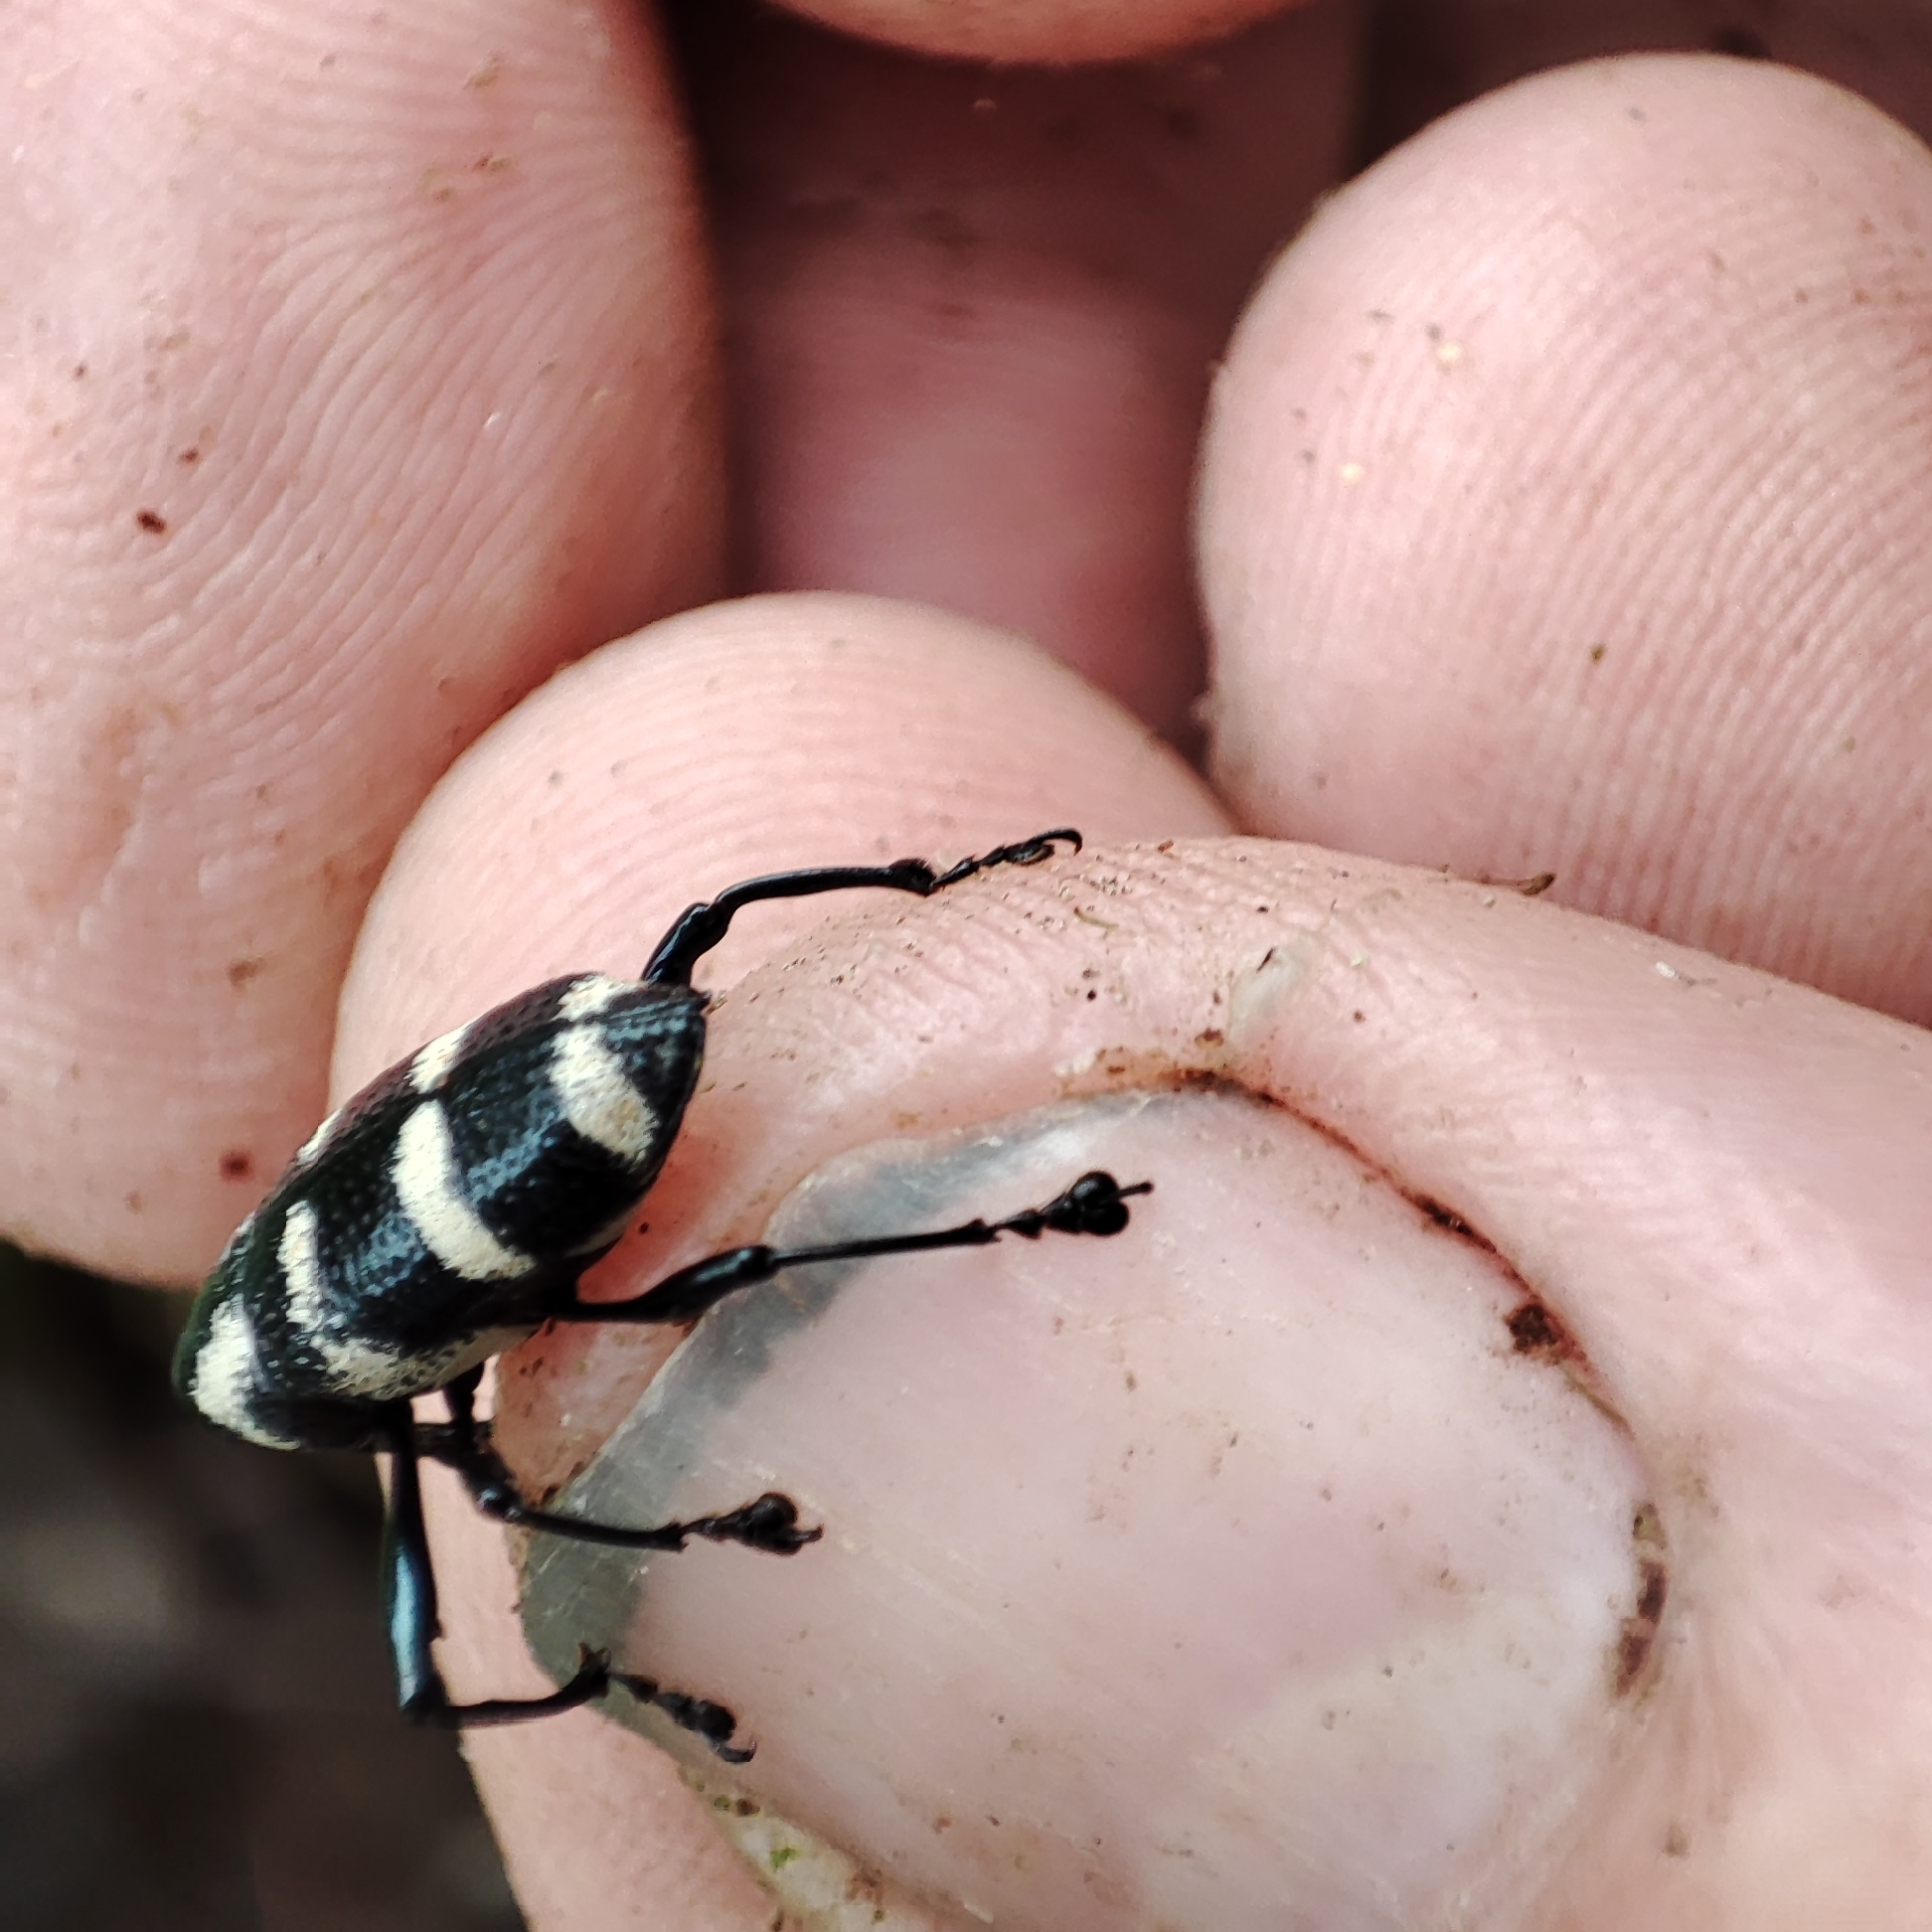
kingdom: Animalia
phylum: Arthropoda
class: Insecta
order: Coleoptera
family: Curculionidae
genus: Cholus
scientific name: Cholus zonatus
